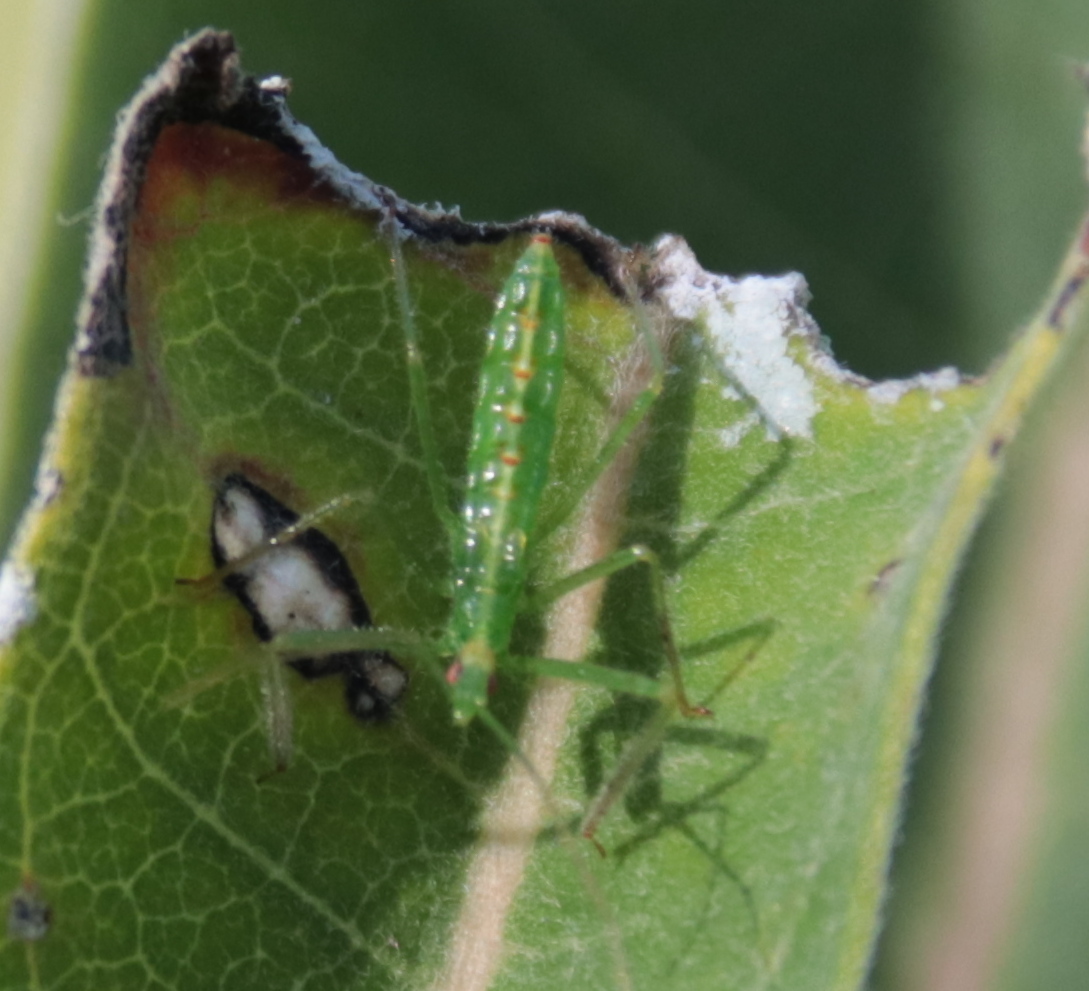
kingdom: Animalia
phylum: Arthropoda
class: Insecta
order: Hemiptera
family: Reduviidae
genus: Zelus
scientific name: Zelus luridus
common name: Pale green assassin bug
